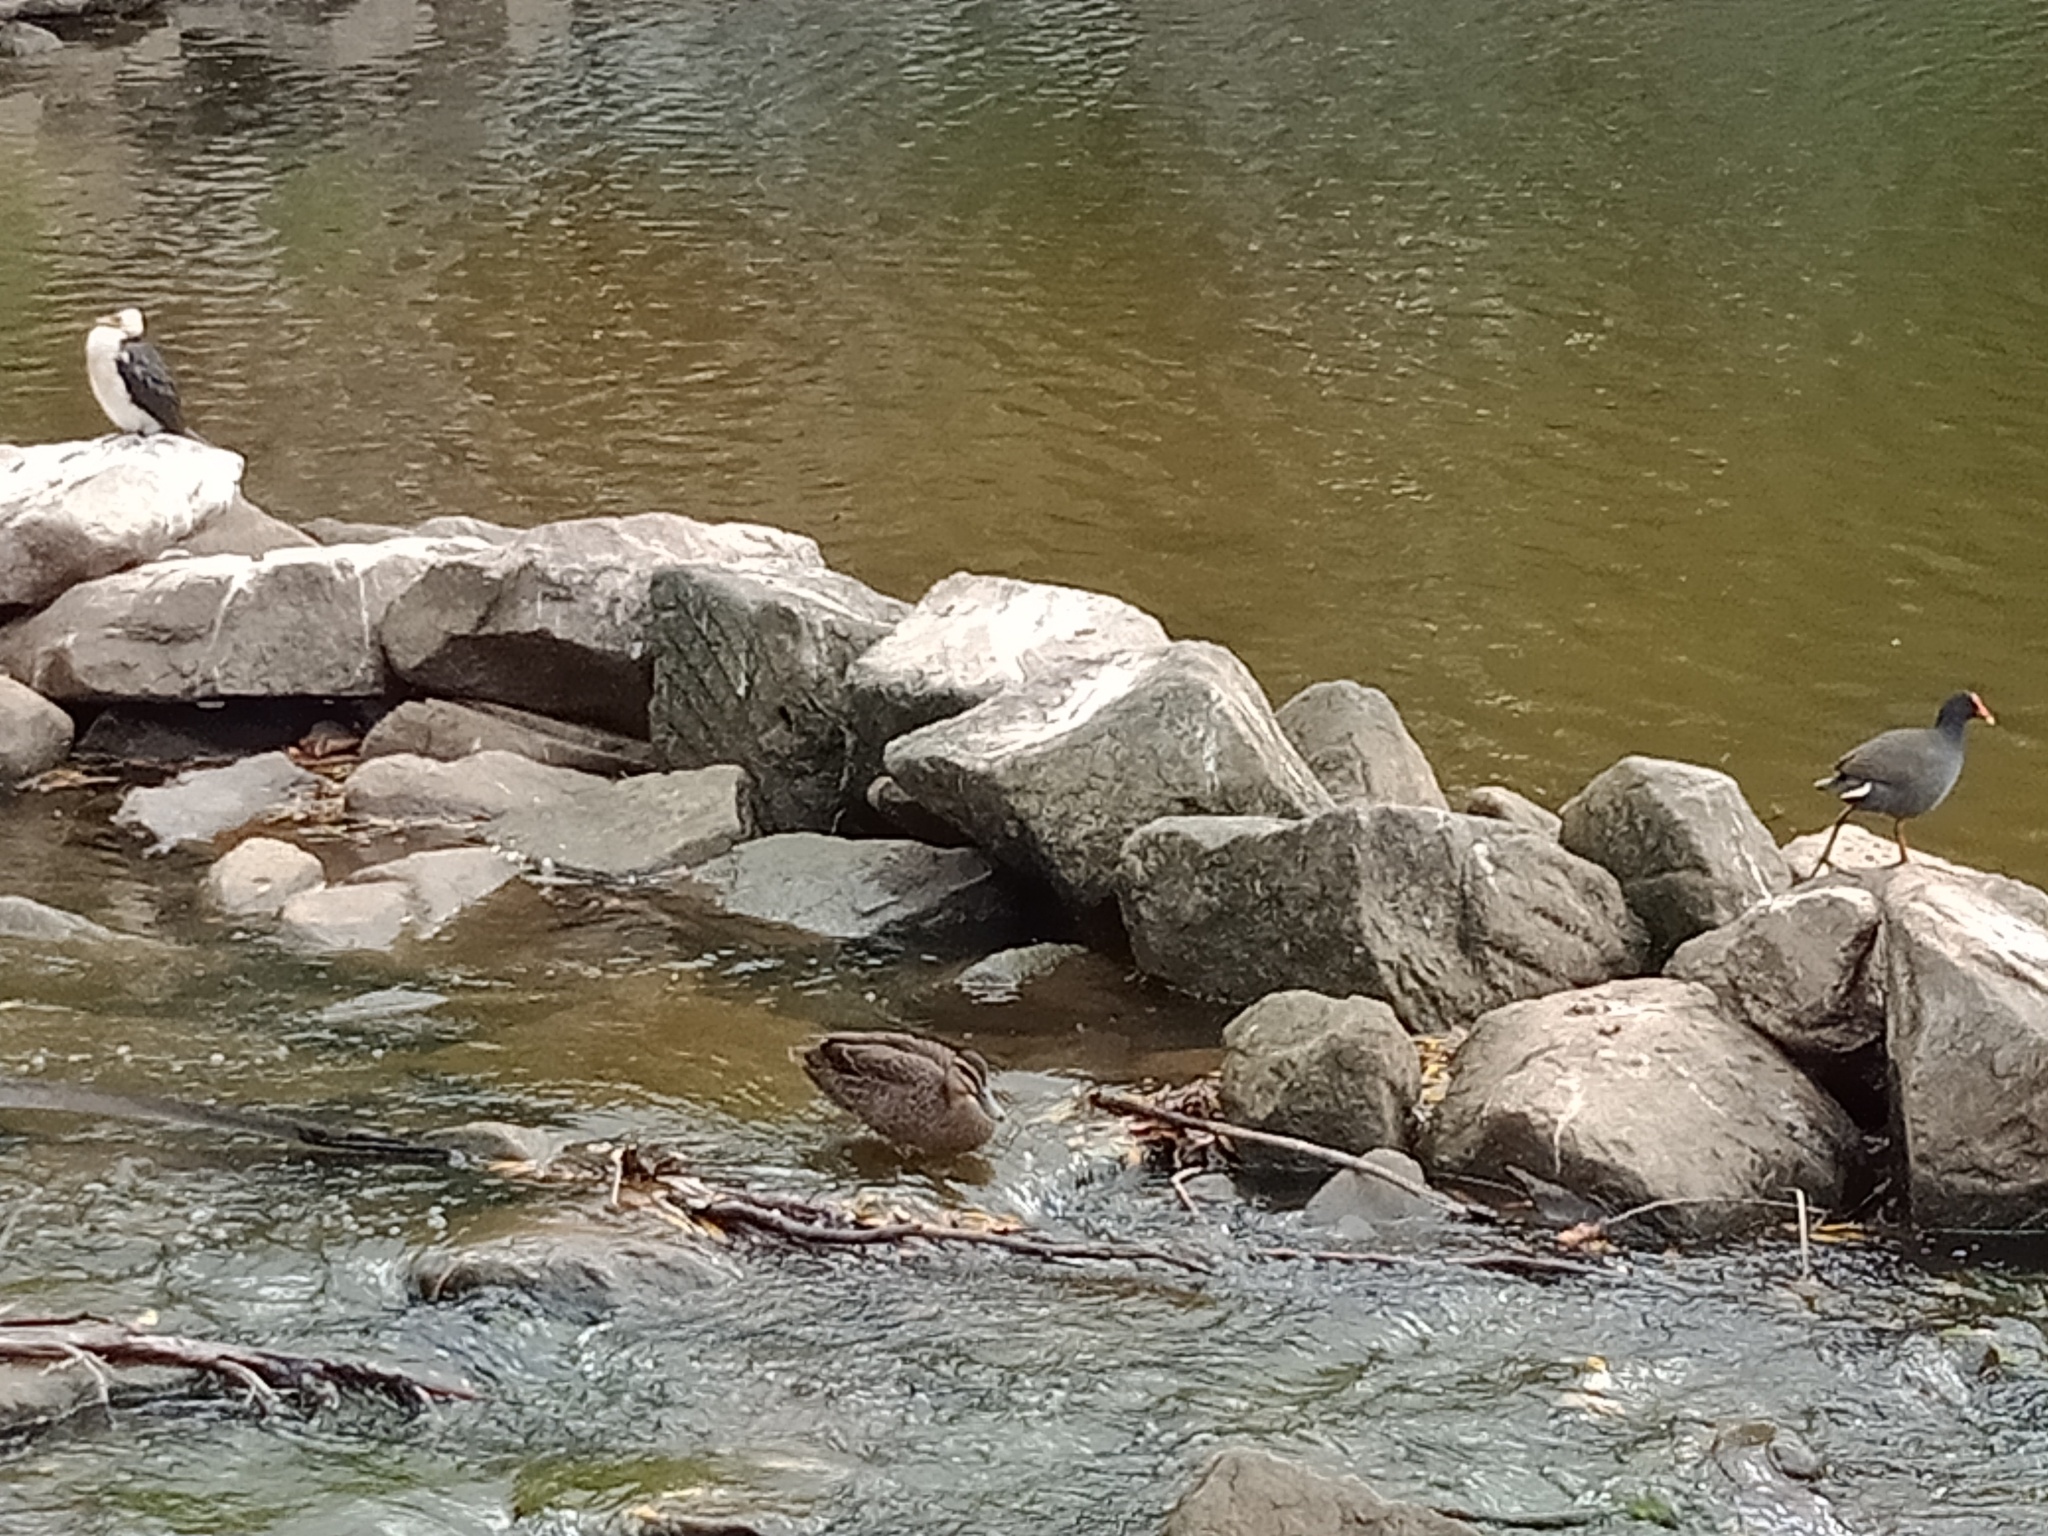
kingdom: Animalia
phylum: Chordata
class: Aves
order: Suliformes
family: Phalacrocoracidae
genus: Microcarbo
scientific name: Microcarbo melanoleucos
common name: Little pied cormorant
